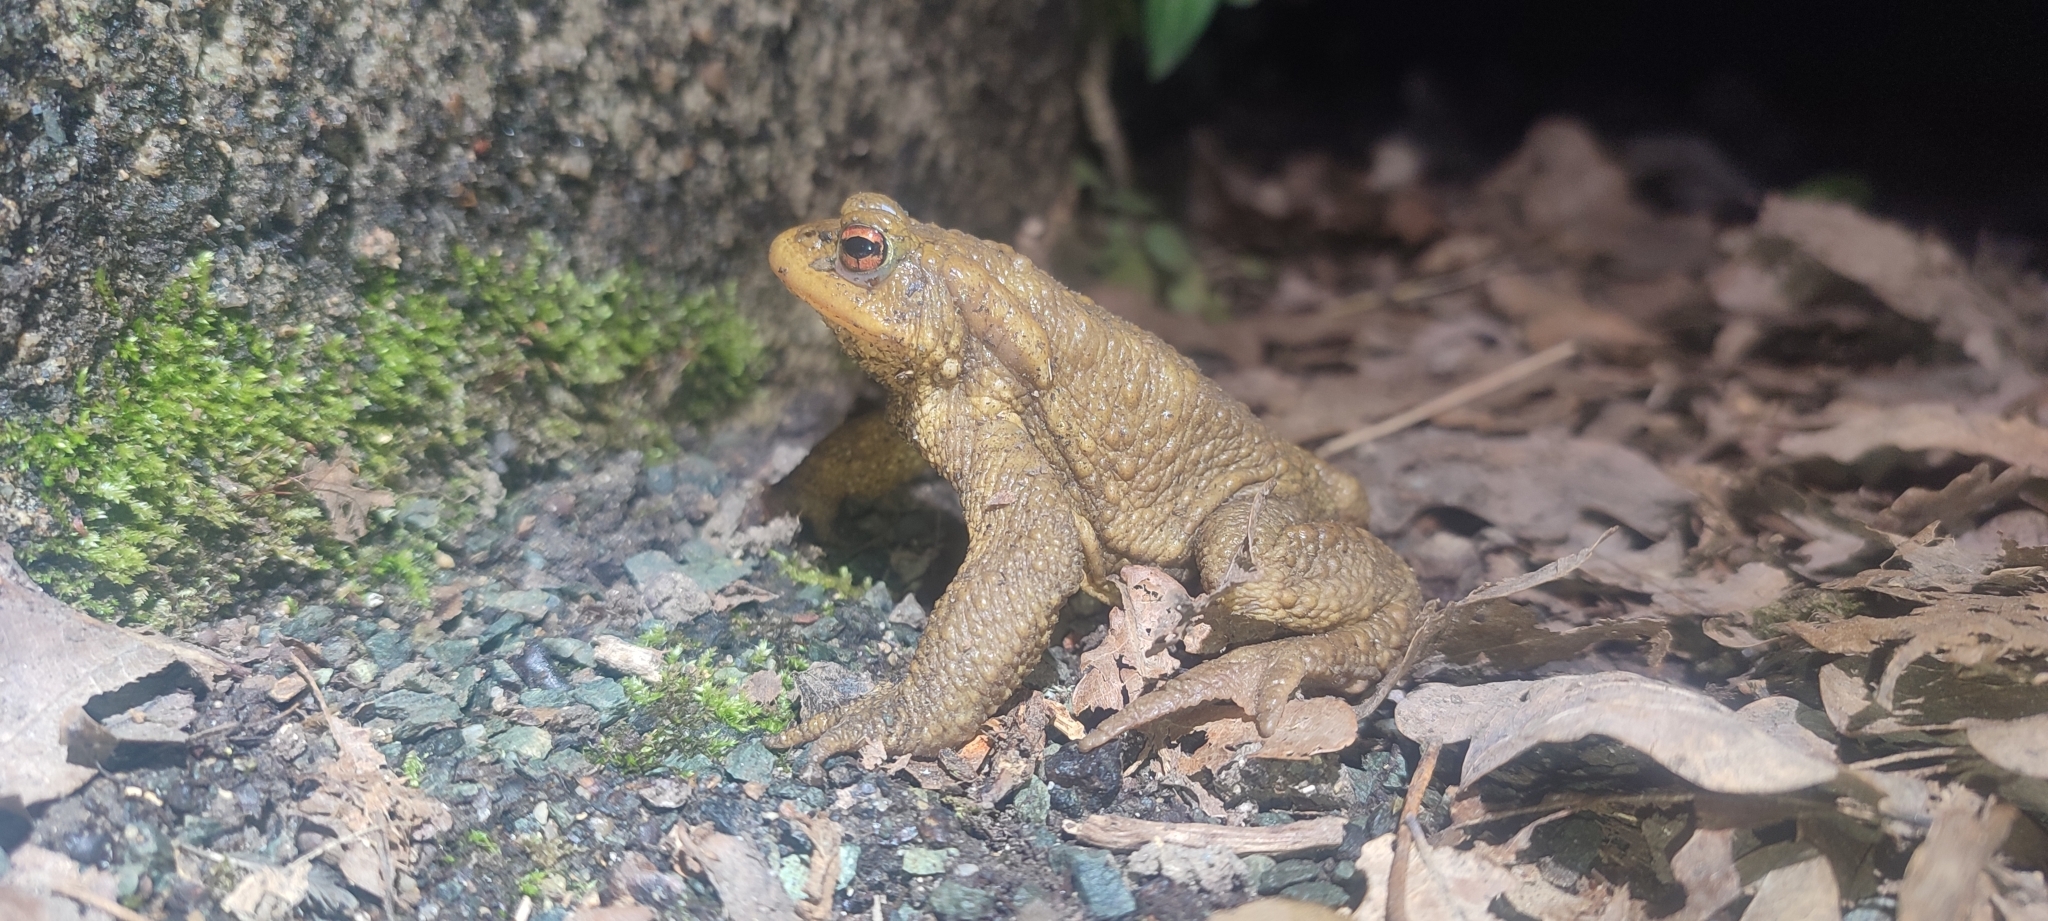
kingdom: Animalia
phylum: Chordata
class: Amphibia
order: Anura
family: Bufonidae
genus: Bufo
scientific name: Bufo spinosus
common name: Western common toad
